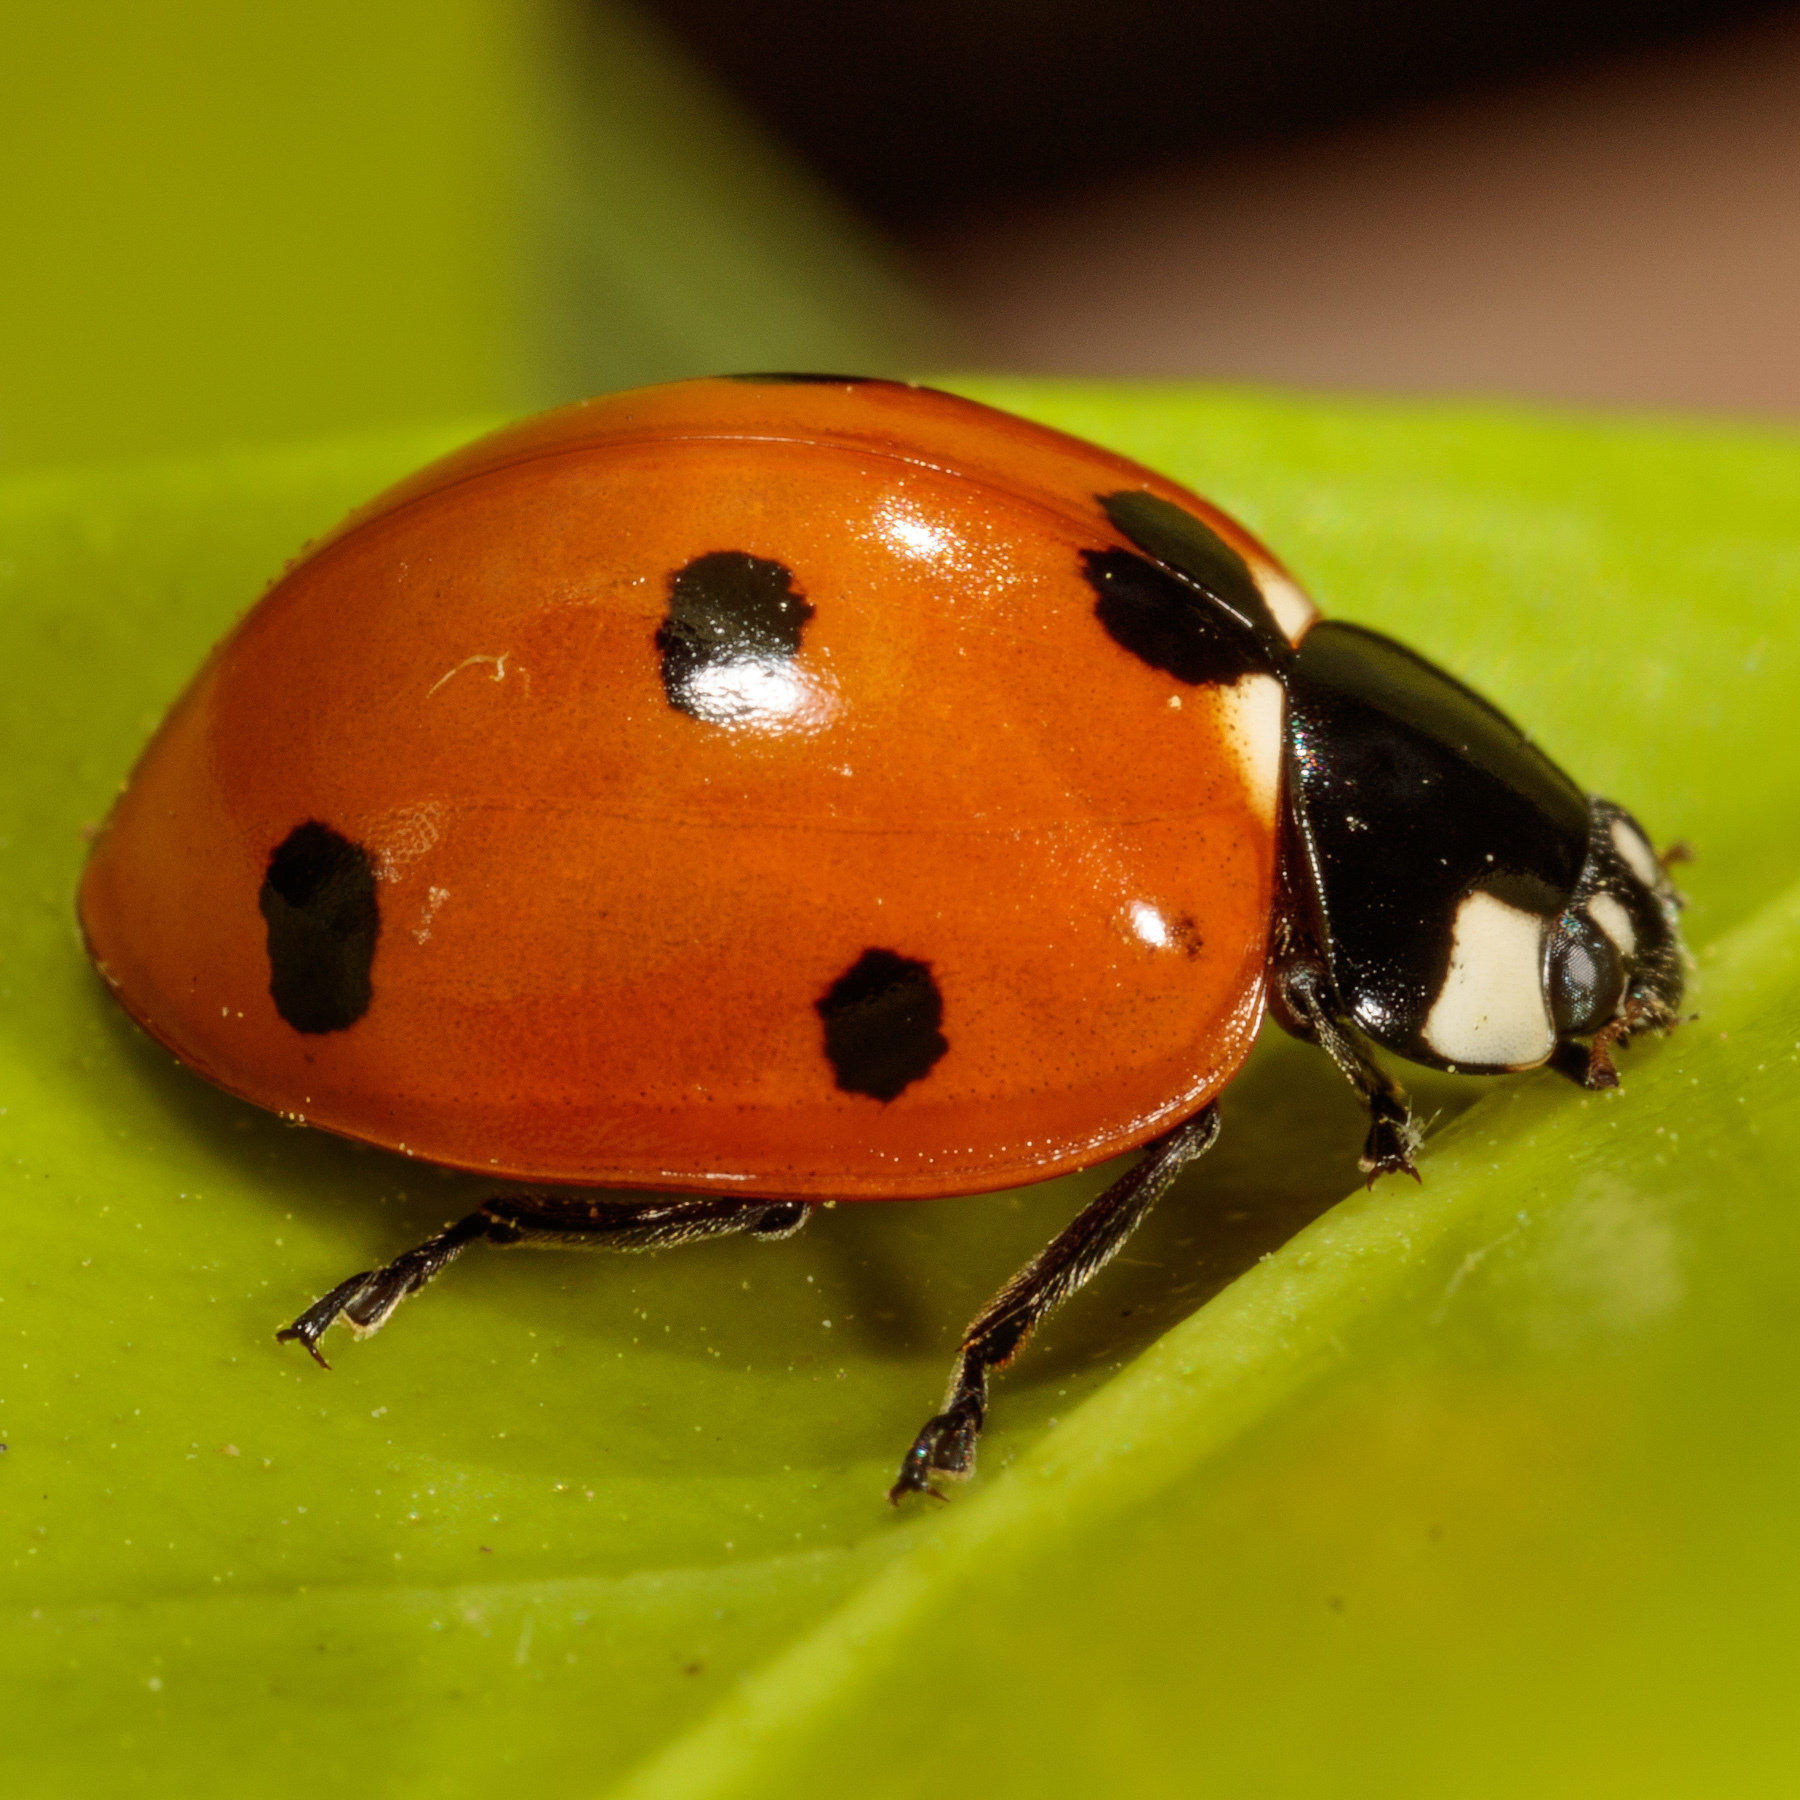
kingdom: Animalia
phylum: Arthropoda
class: Insecta
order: Coleoptera
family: Coccinellidae
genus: Coccinella
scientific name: Coccinella septempunctata
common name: Sevenspotted lady beetle
